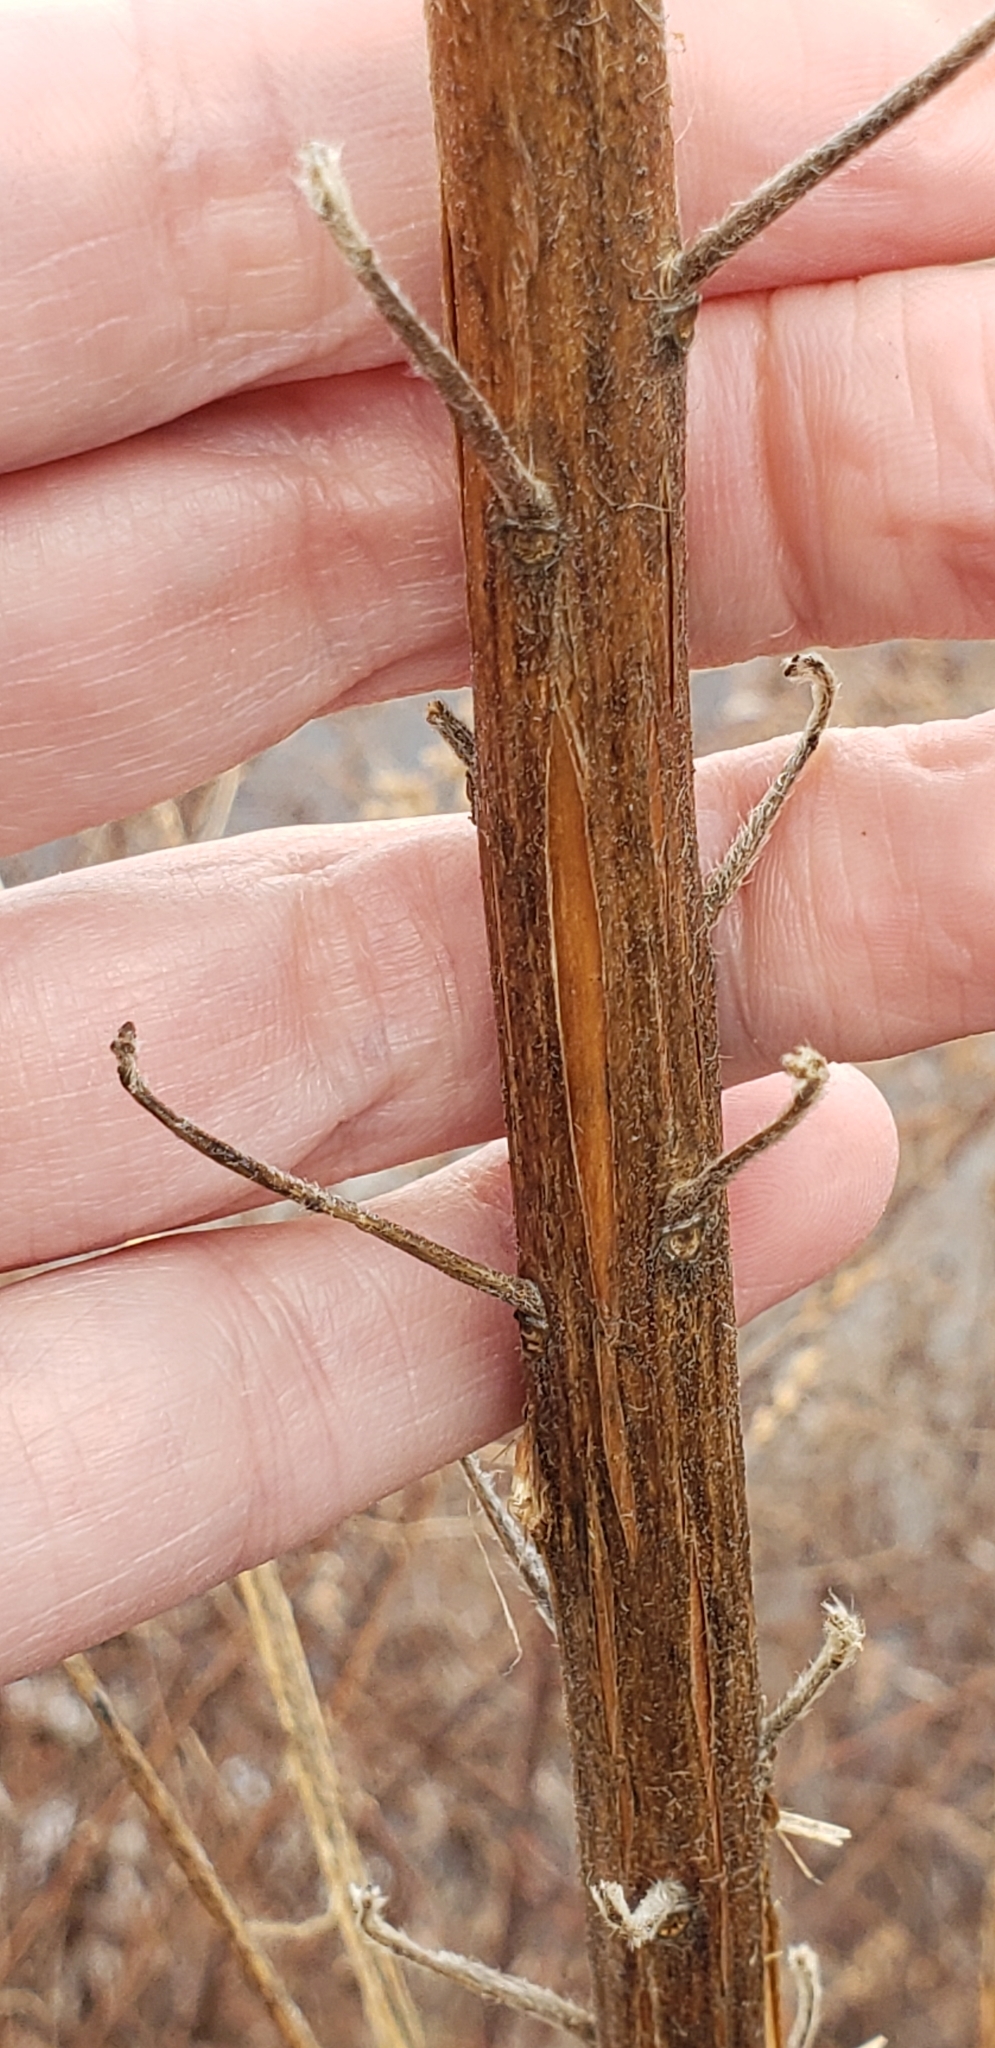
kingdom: Plantae
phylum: Tracheophyta
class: Magnoliopsida
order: Myrtales
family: Onagraceae
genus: Oenothera
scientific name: Oenothera biennis
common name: Common evening-primrose
